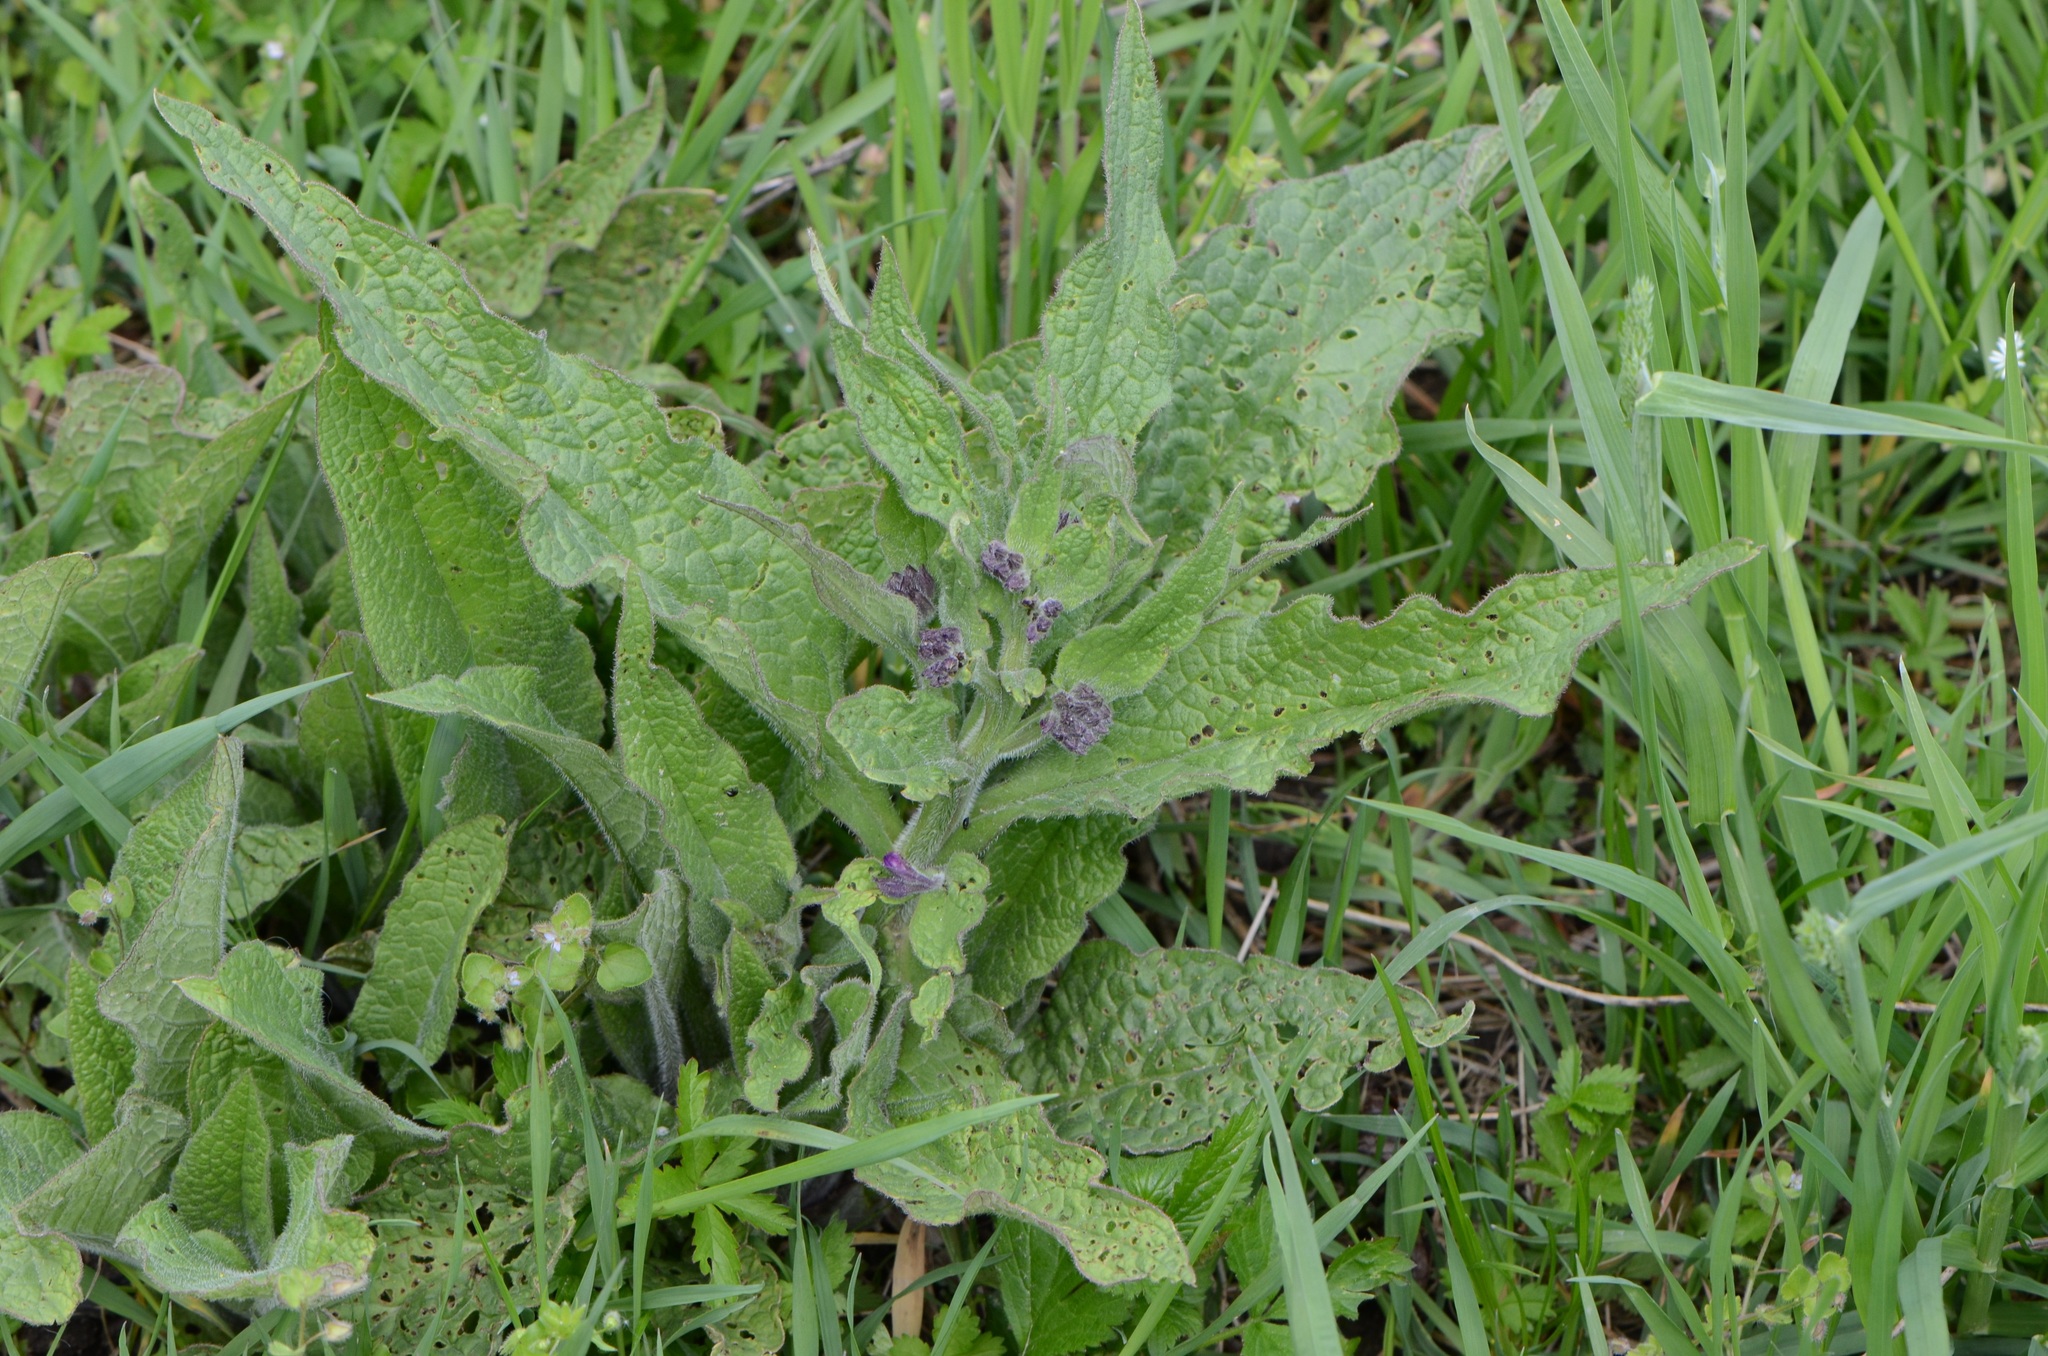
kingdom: Plantae
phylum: Tracheophyta
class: Magnoliopsida
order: Boraginales
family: Boraginaceae
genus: Symphytum
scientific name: Symphytum officinale
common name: Common comfrey
